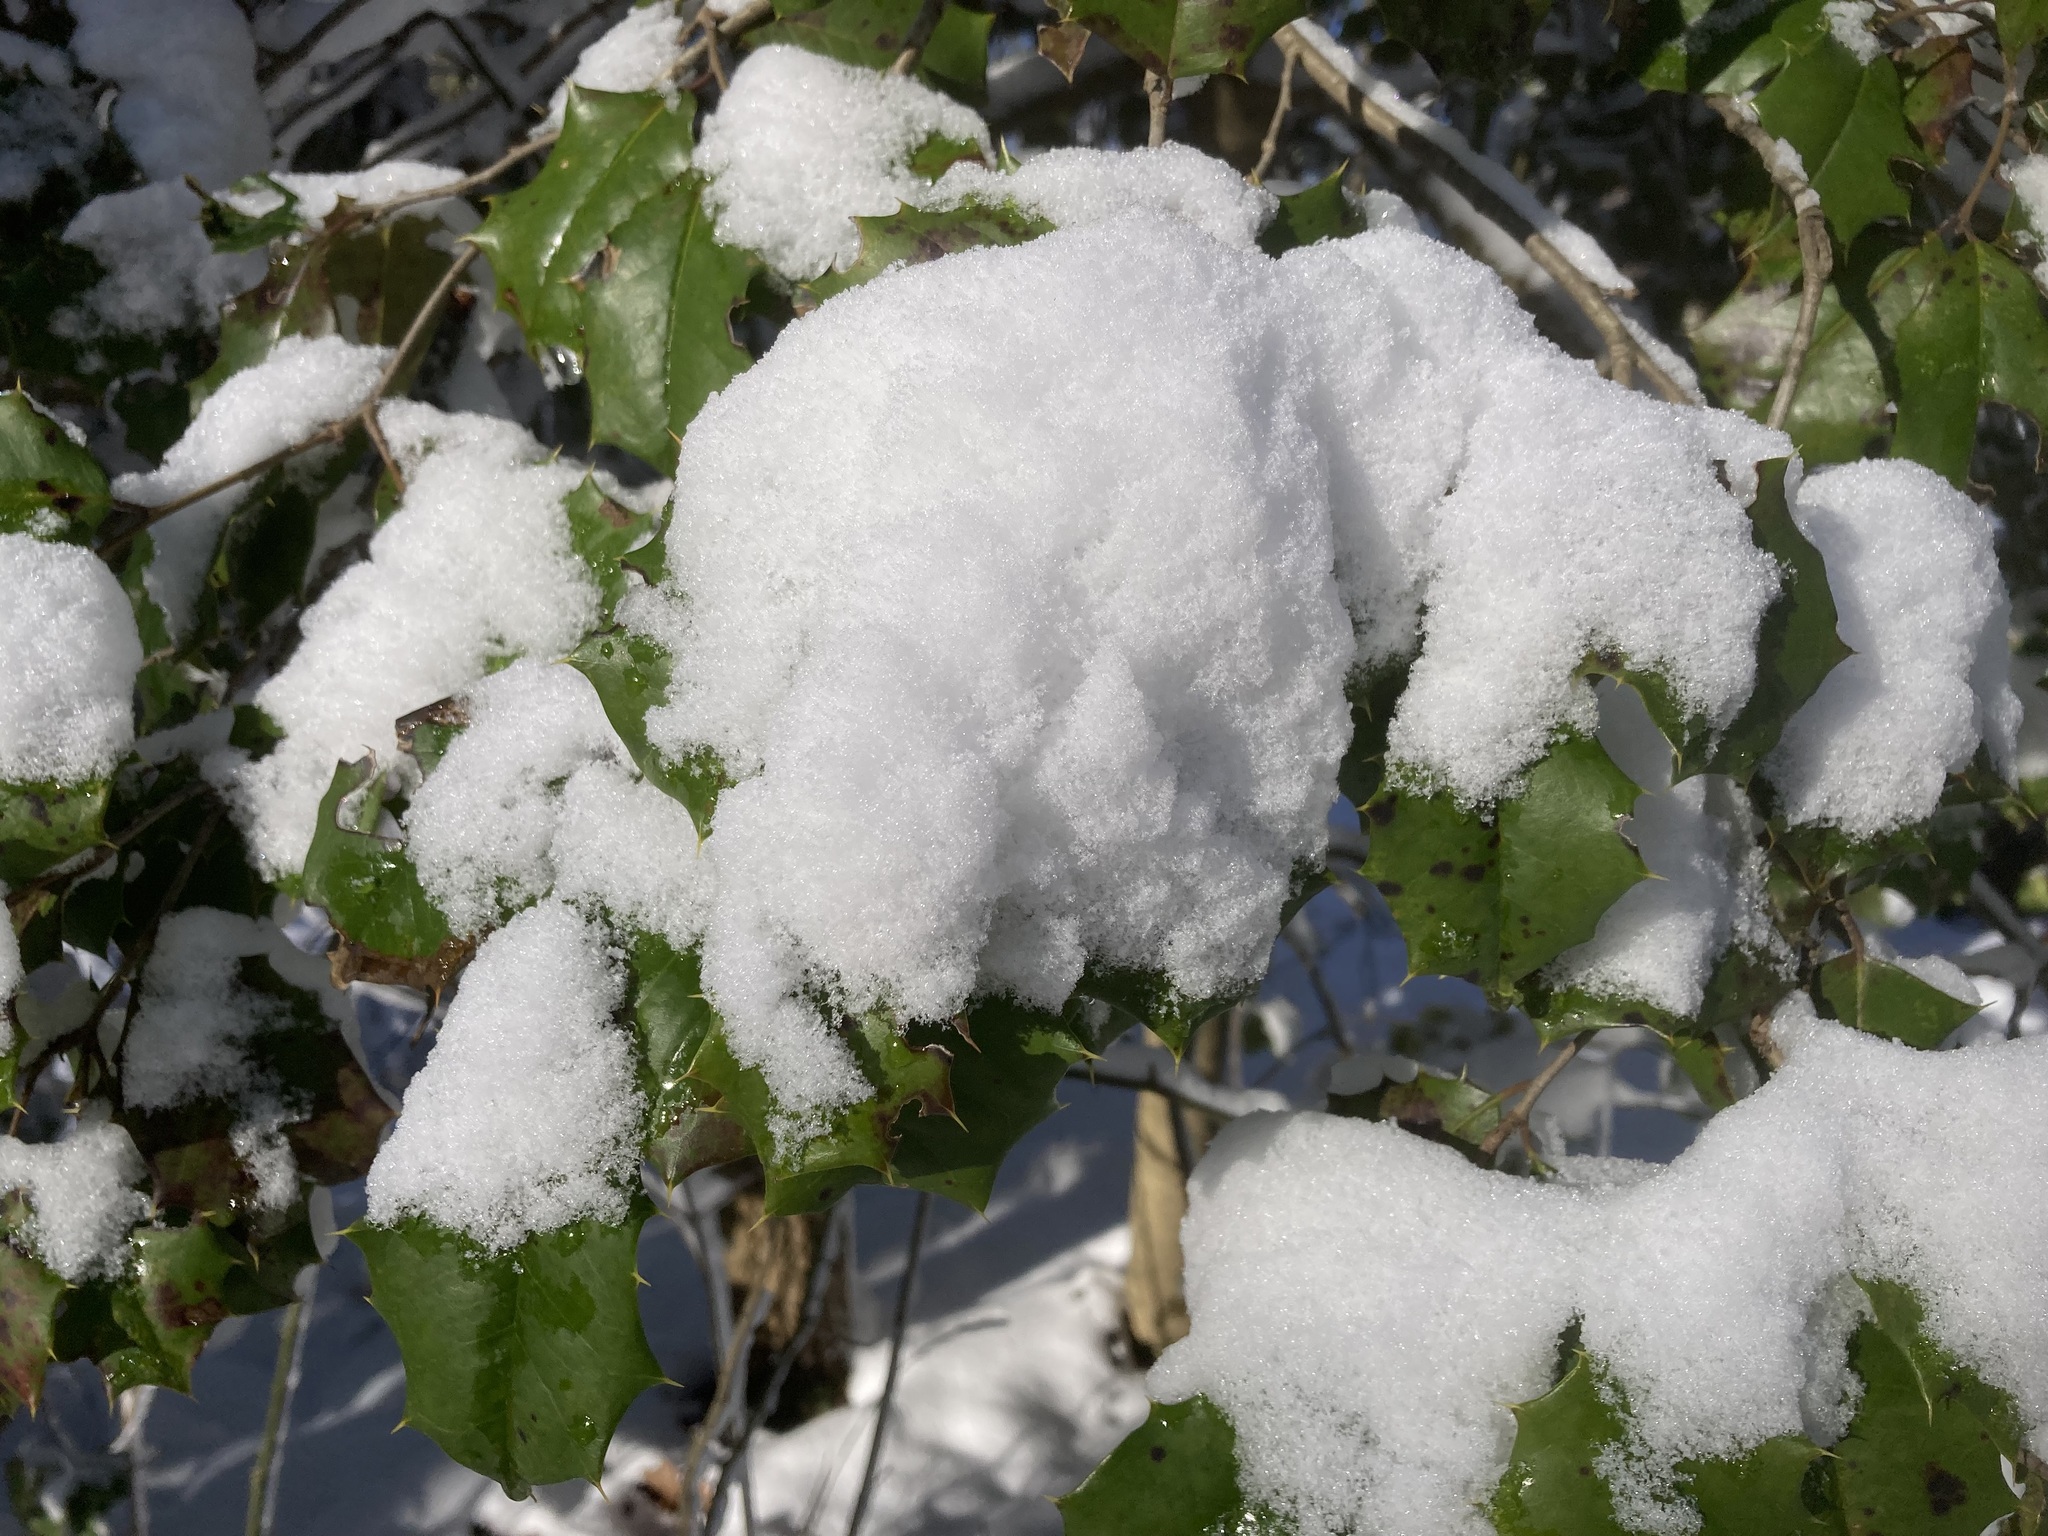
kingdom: Plantae
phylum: Tracheophyta
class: Magnoliopsida
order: Aquifoliales
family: Aquifoliaceae
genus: Ilex
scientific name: Ilex opaca
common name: American holly
